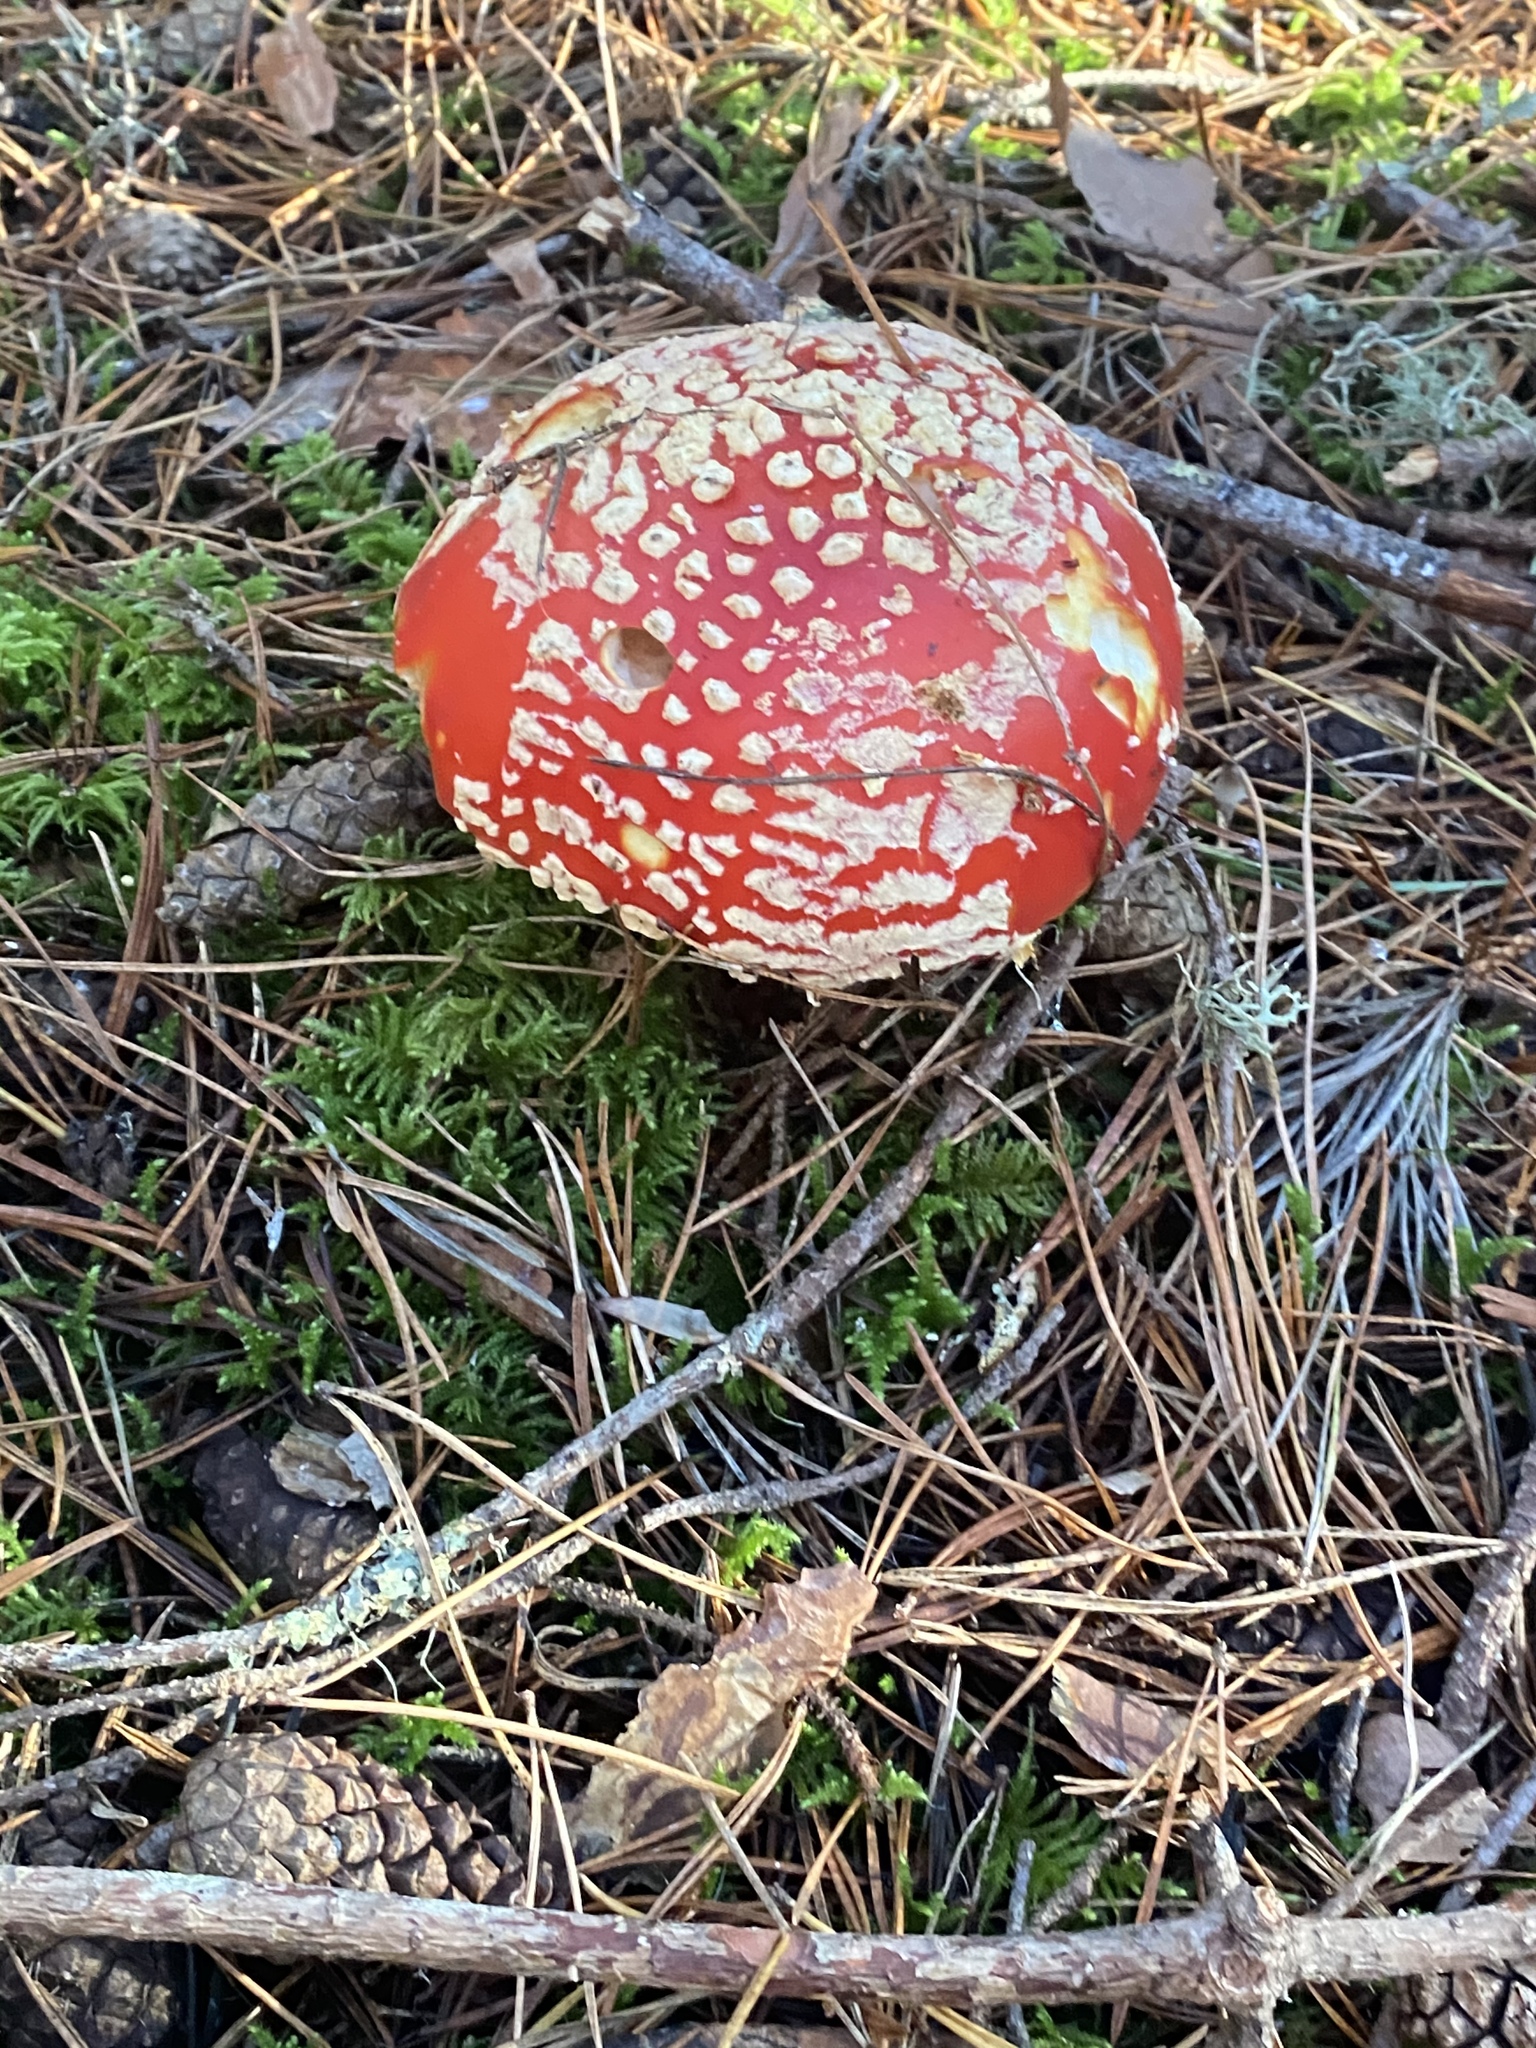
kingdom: Fungi
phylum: Basidiomycota
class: Agaricomycetes
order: Agaricales
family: Amanitaceae
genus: Amanita
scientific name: Amanita muscaria
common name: Fly agaric
